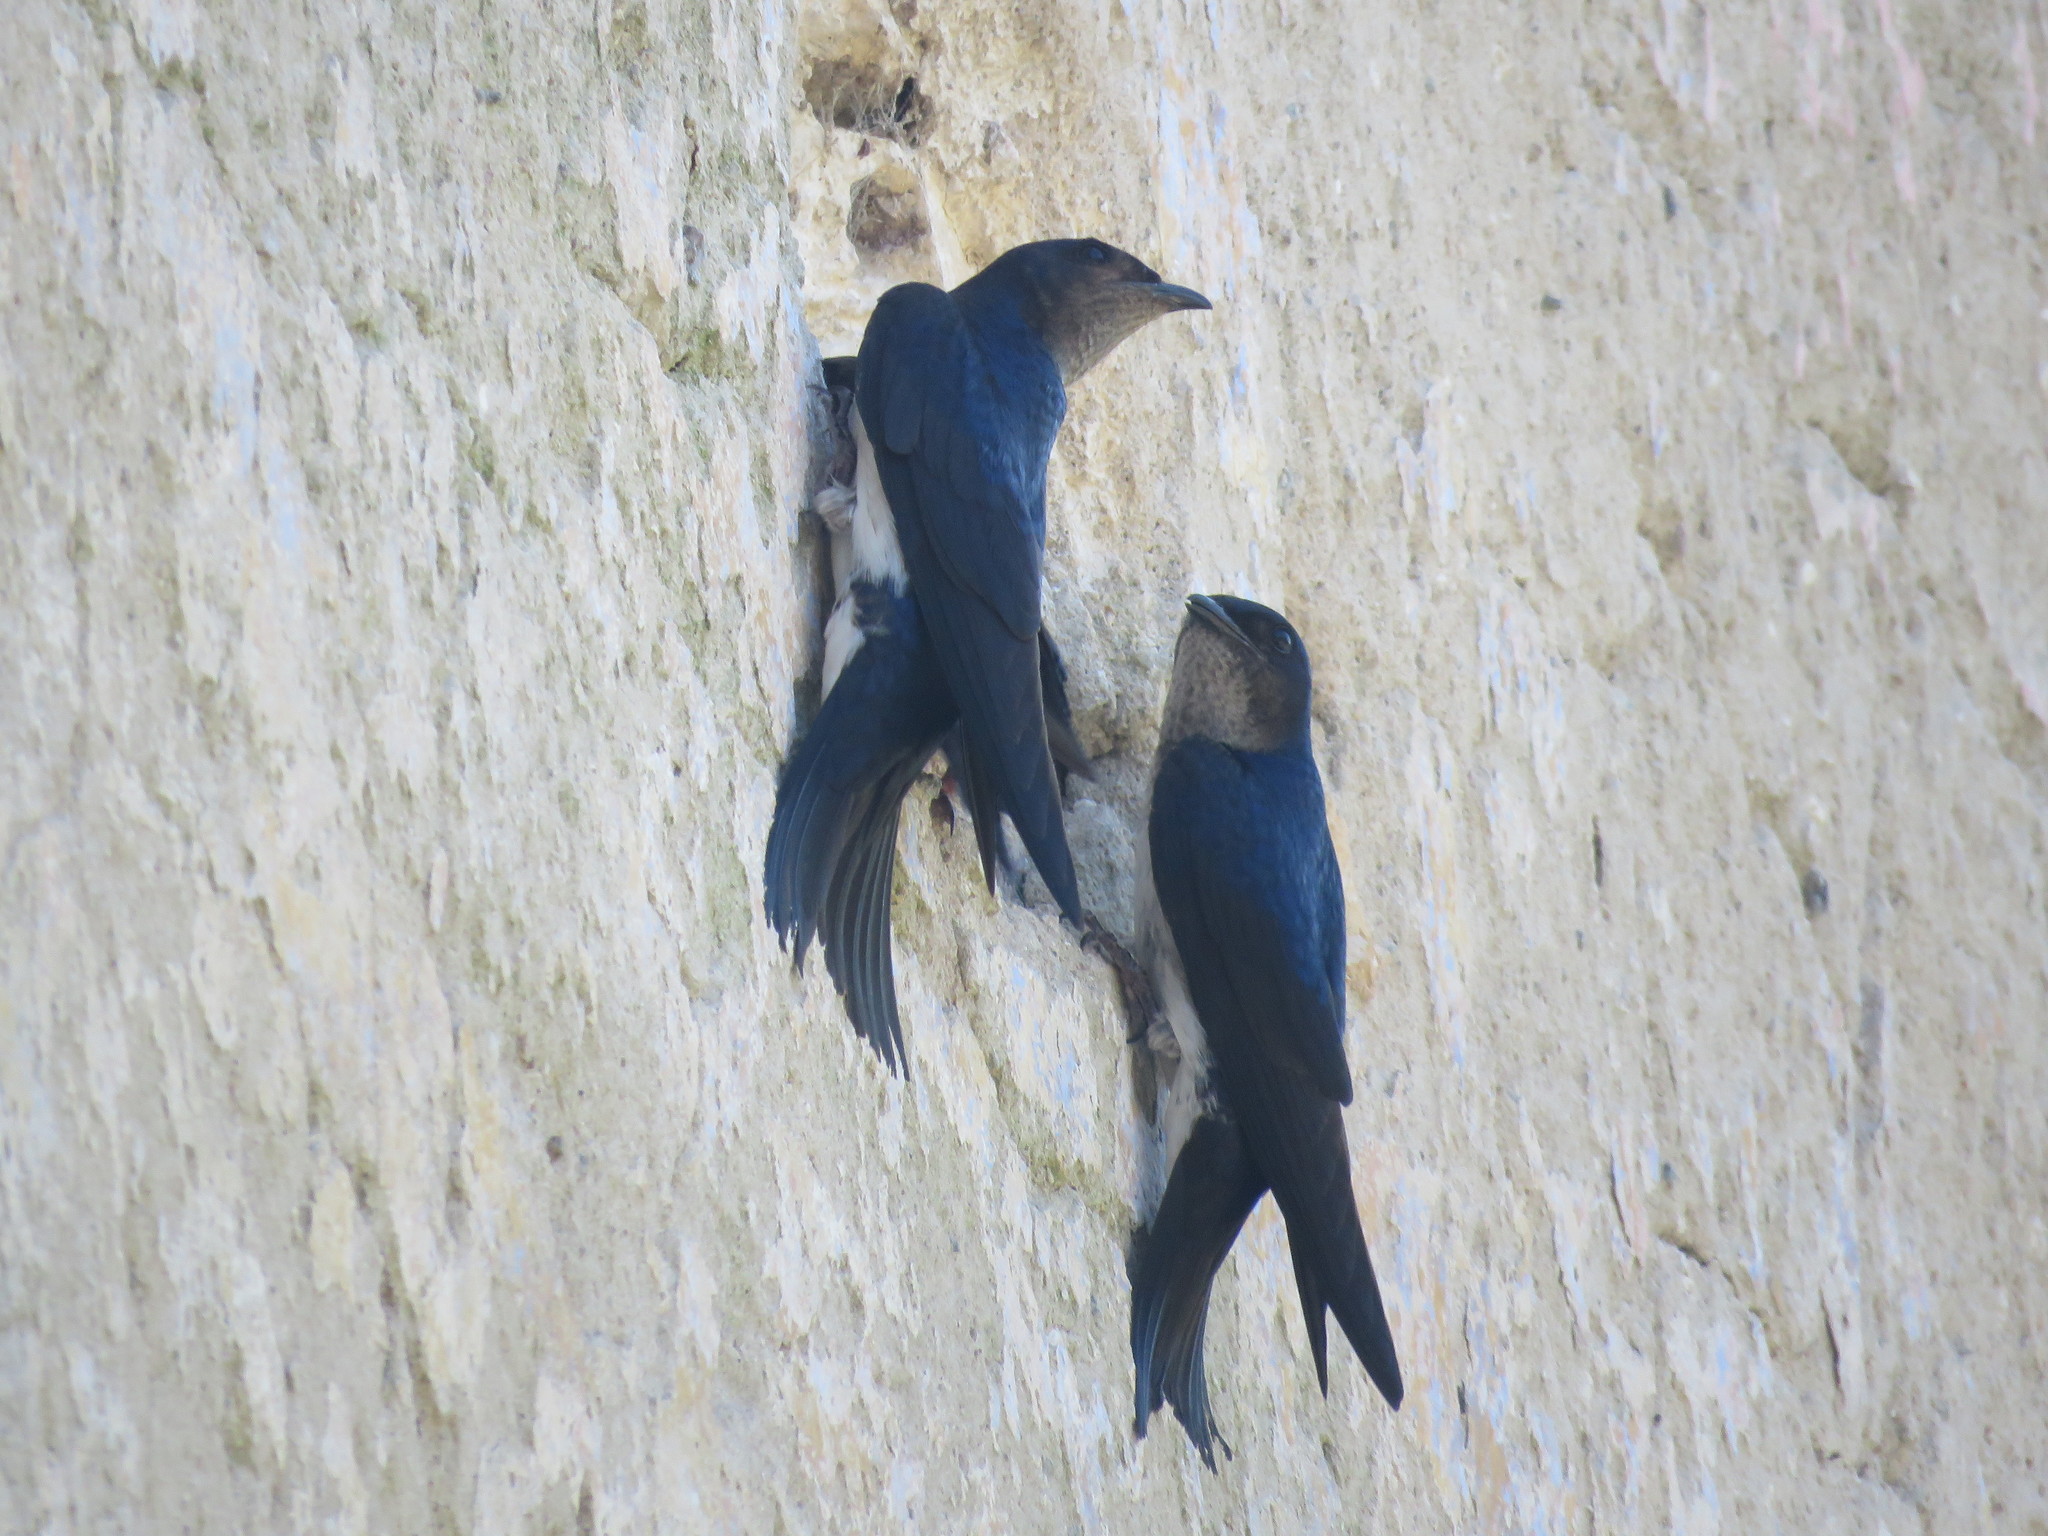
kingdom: Animalia
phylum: Chordata
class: Aves
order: Passeriformes
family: Hirundinidae
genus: Progne
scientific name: Progne chalybea
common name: Grey-breasted martin
